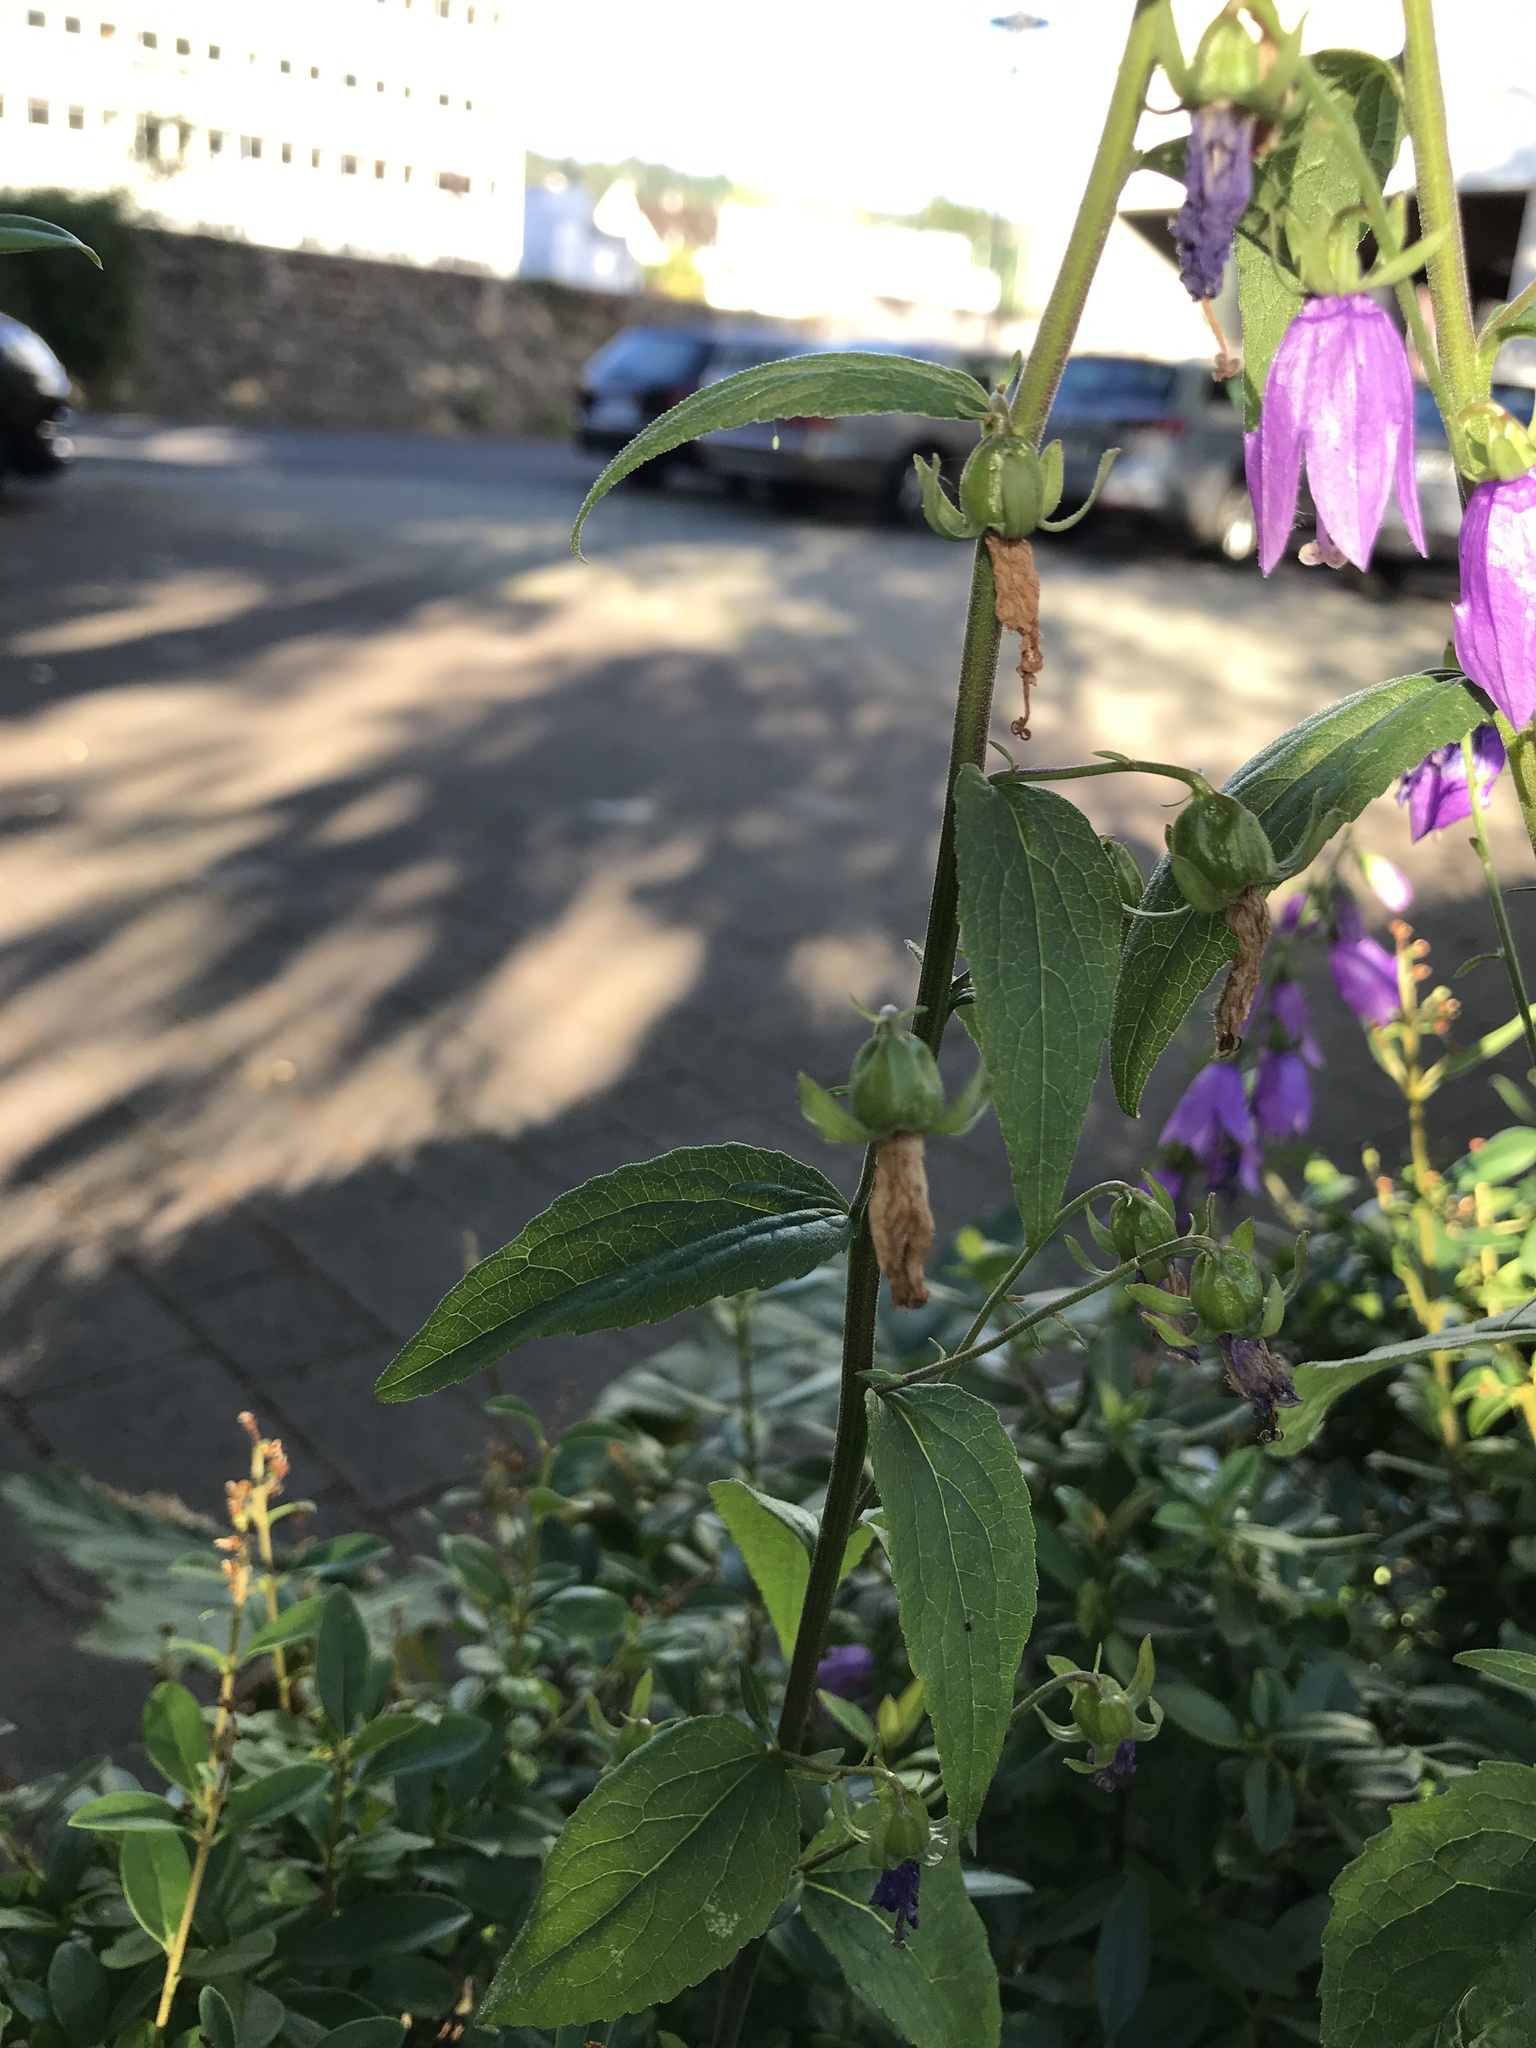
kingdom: Plantae
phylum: Tracheophyta
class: Magnoliopsida
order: Asterales
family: Campanulaceae
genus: Campanula
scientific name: Campanula rapunculoides
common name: Creeping bellflower
